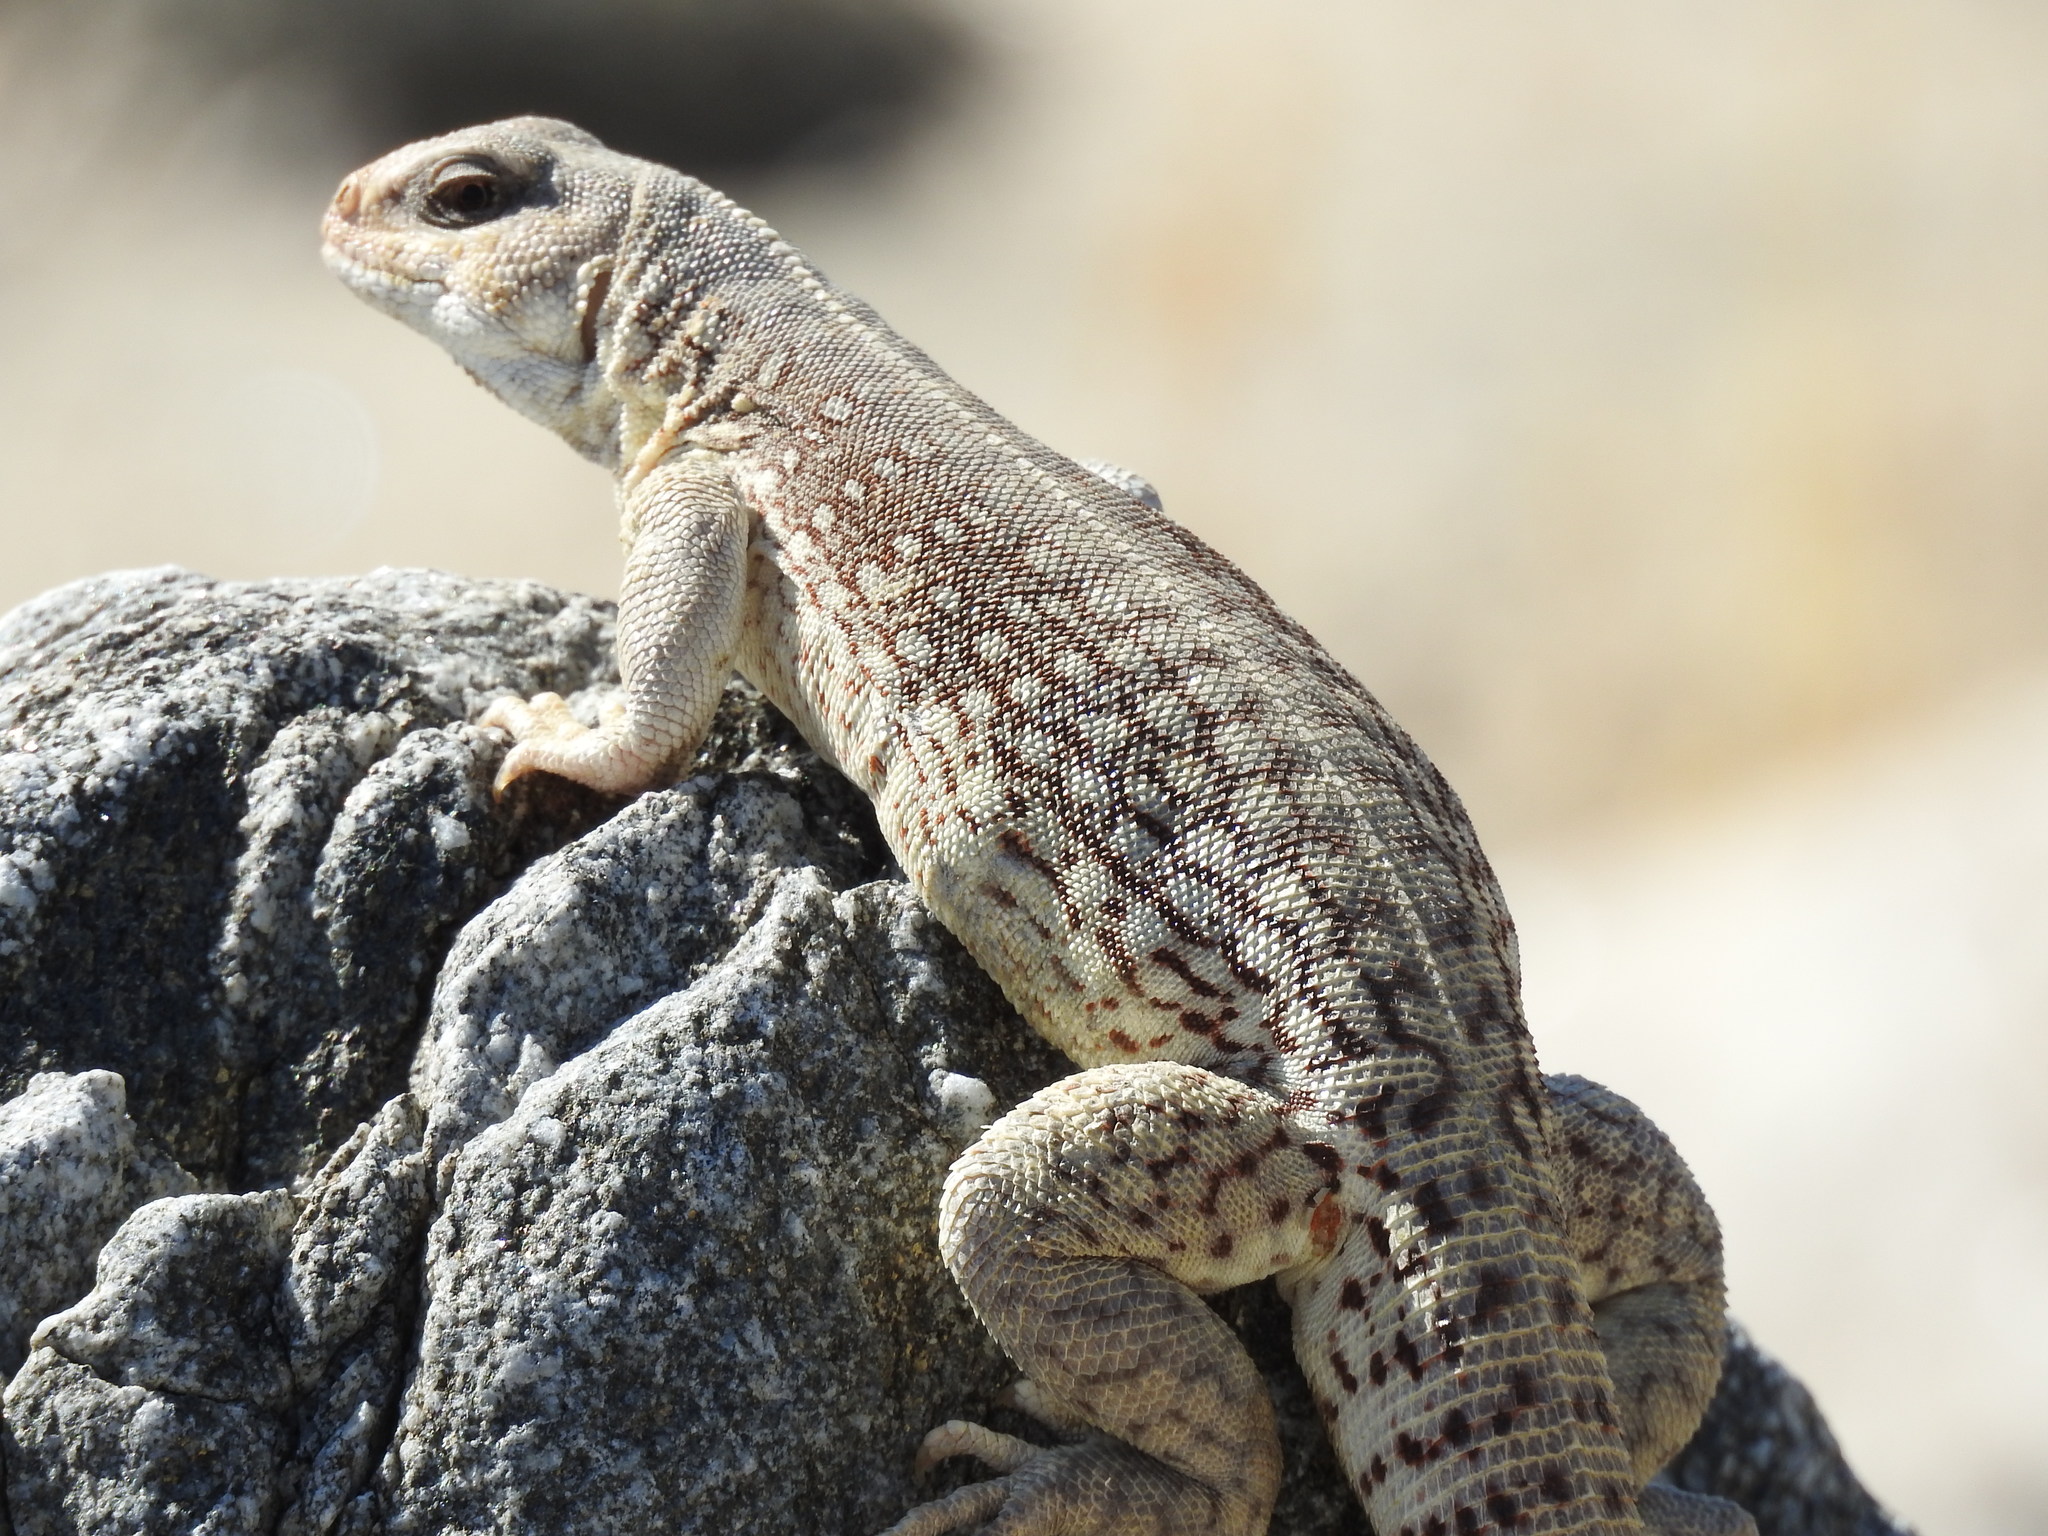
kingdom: Animalia
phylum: Chordata
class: Squamata
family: Iguanidae
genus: Dipsosaurus
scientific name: Dipsosaurus dorsalis
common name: Desert iguana
